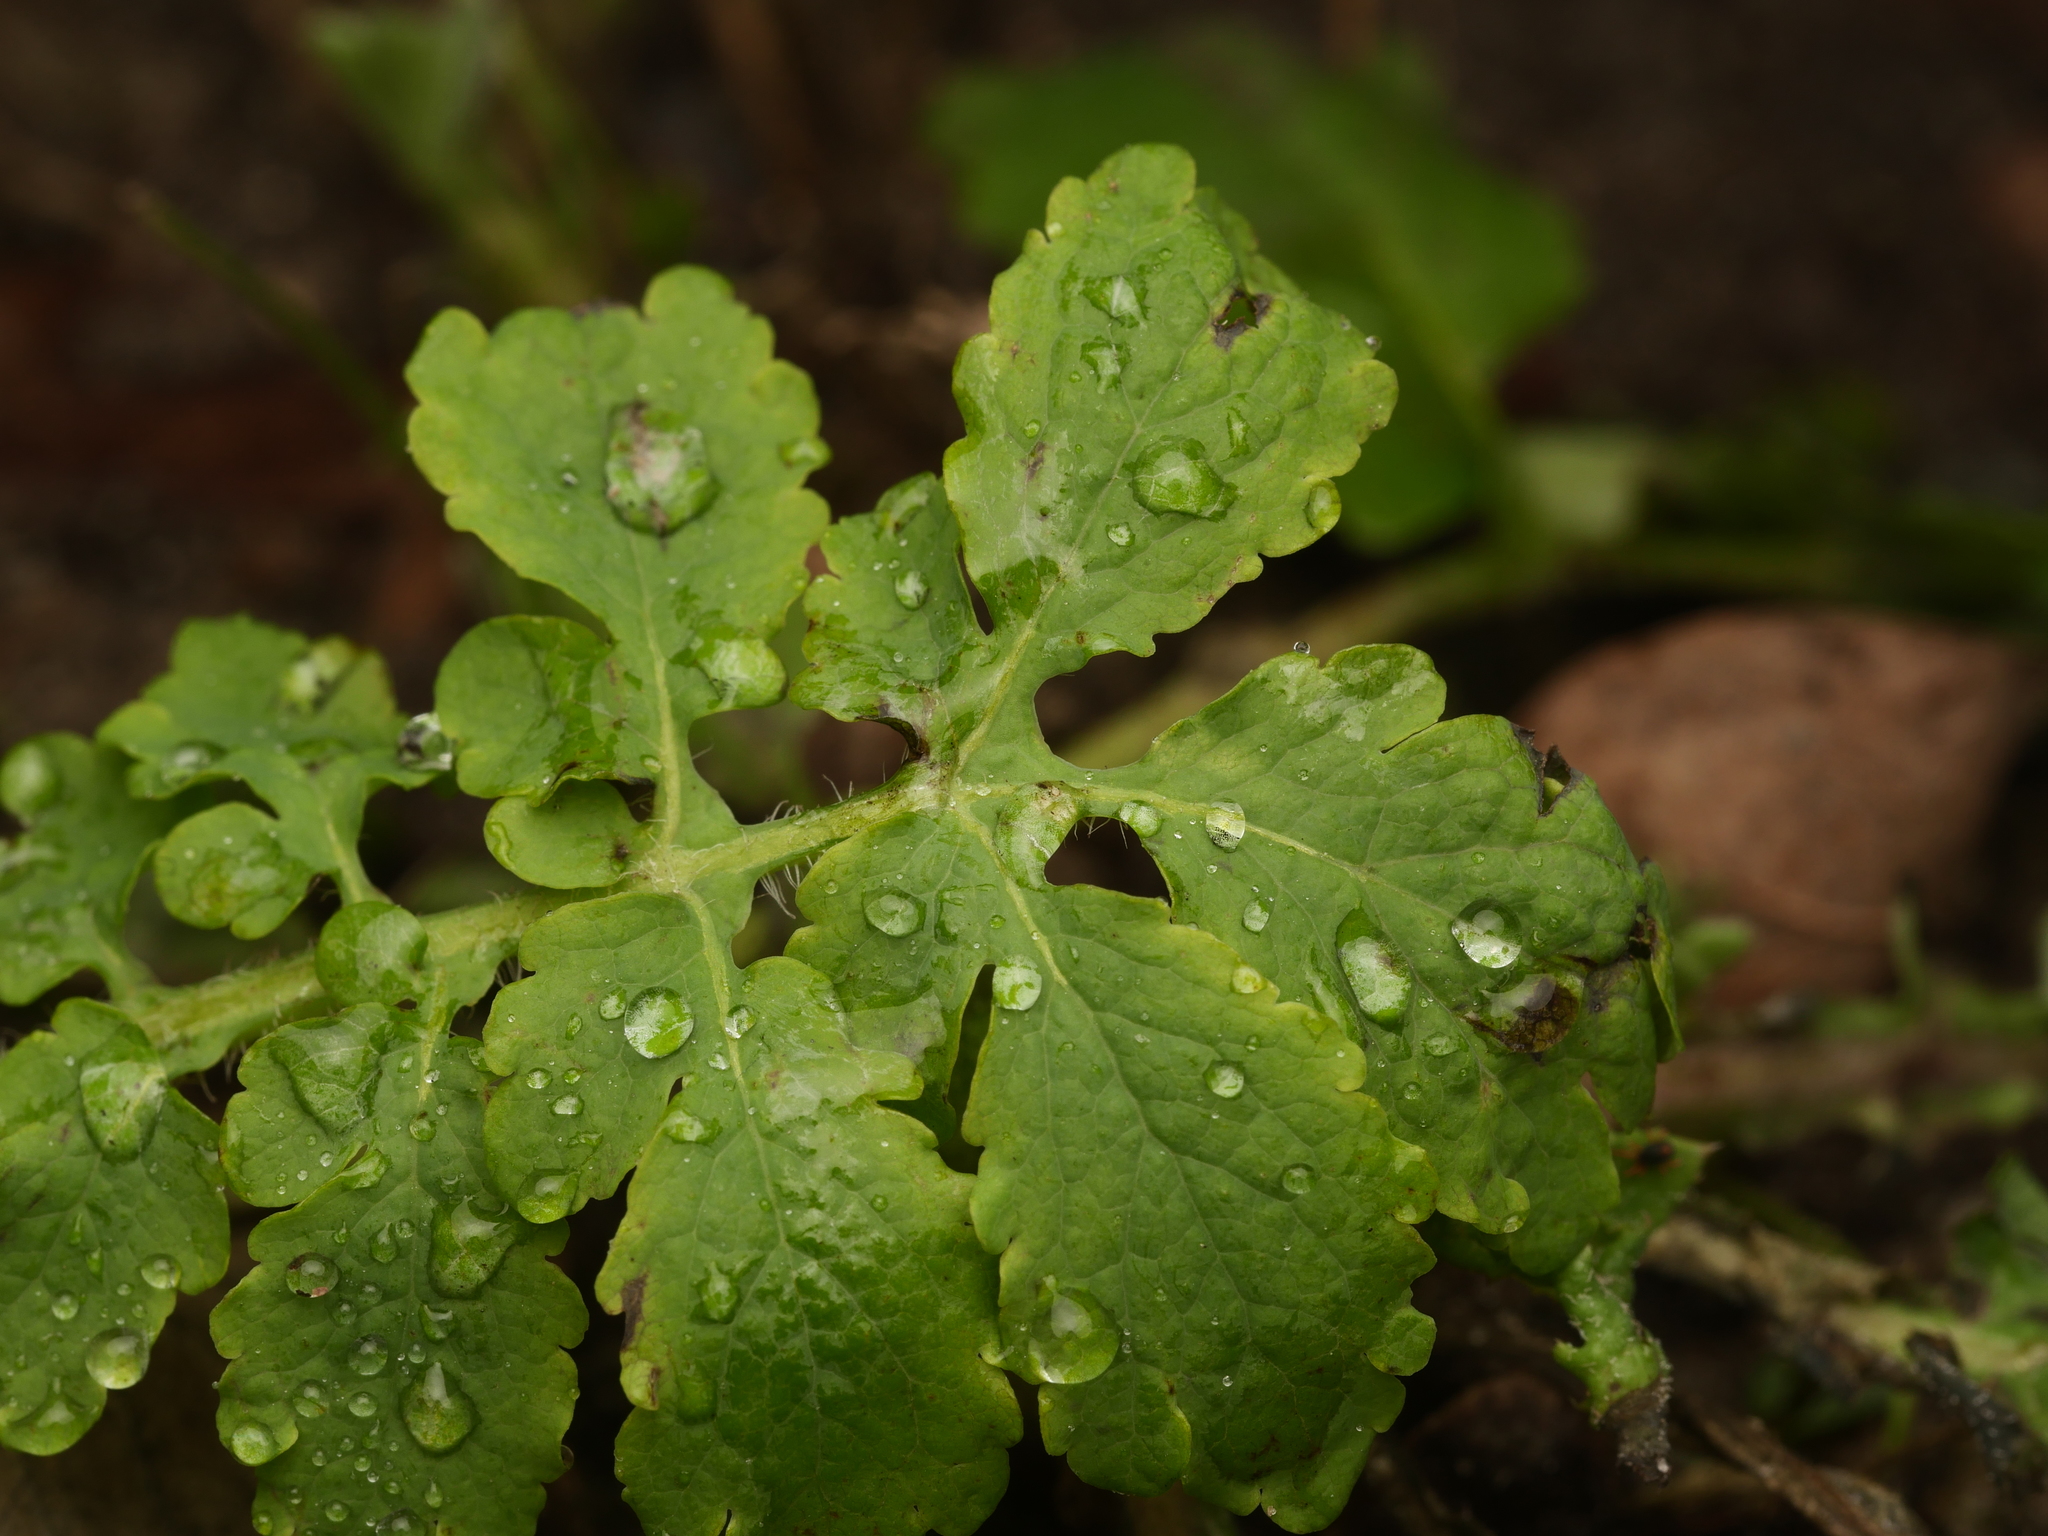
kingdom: Plantae
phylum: Tracheophyta
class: Magnoliopsida
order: Ranunculales
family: Papaveraceae
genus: Chelidonium
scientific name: Chelidonium majus
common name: Greater celandine
